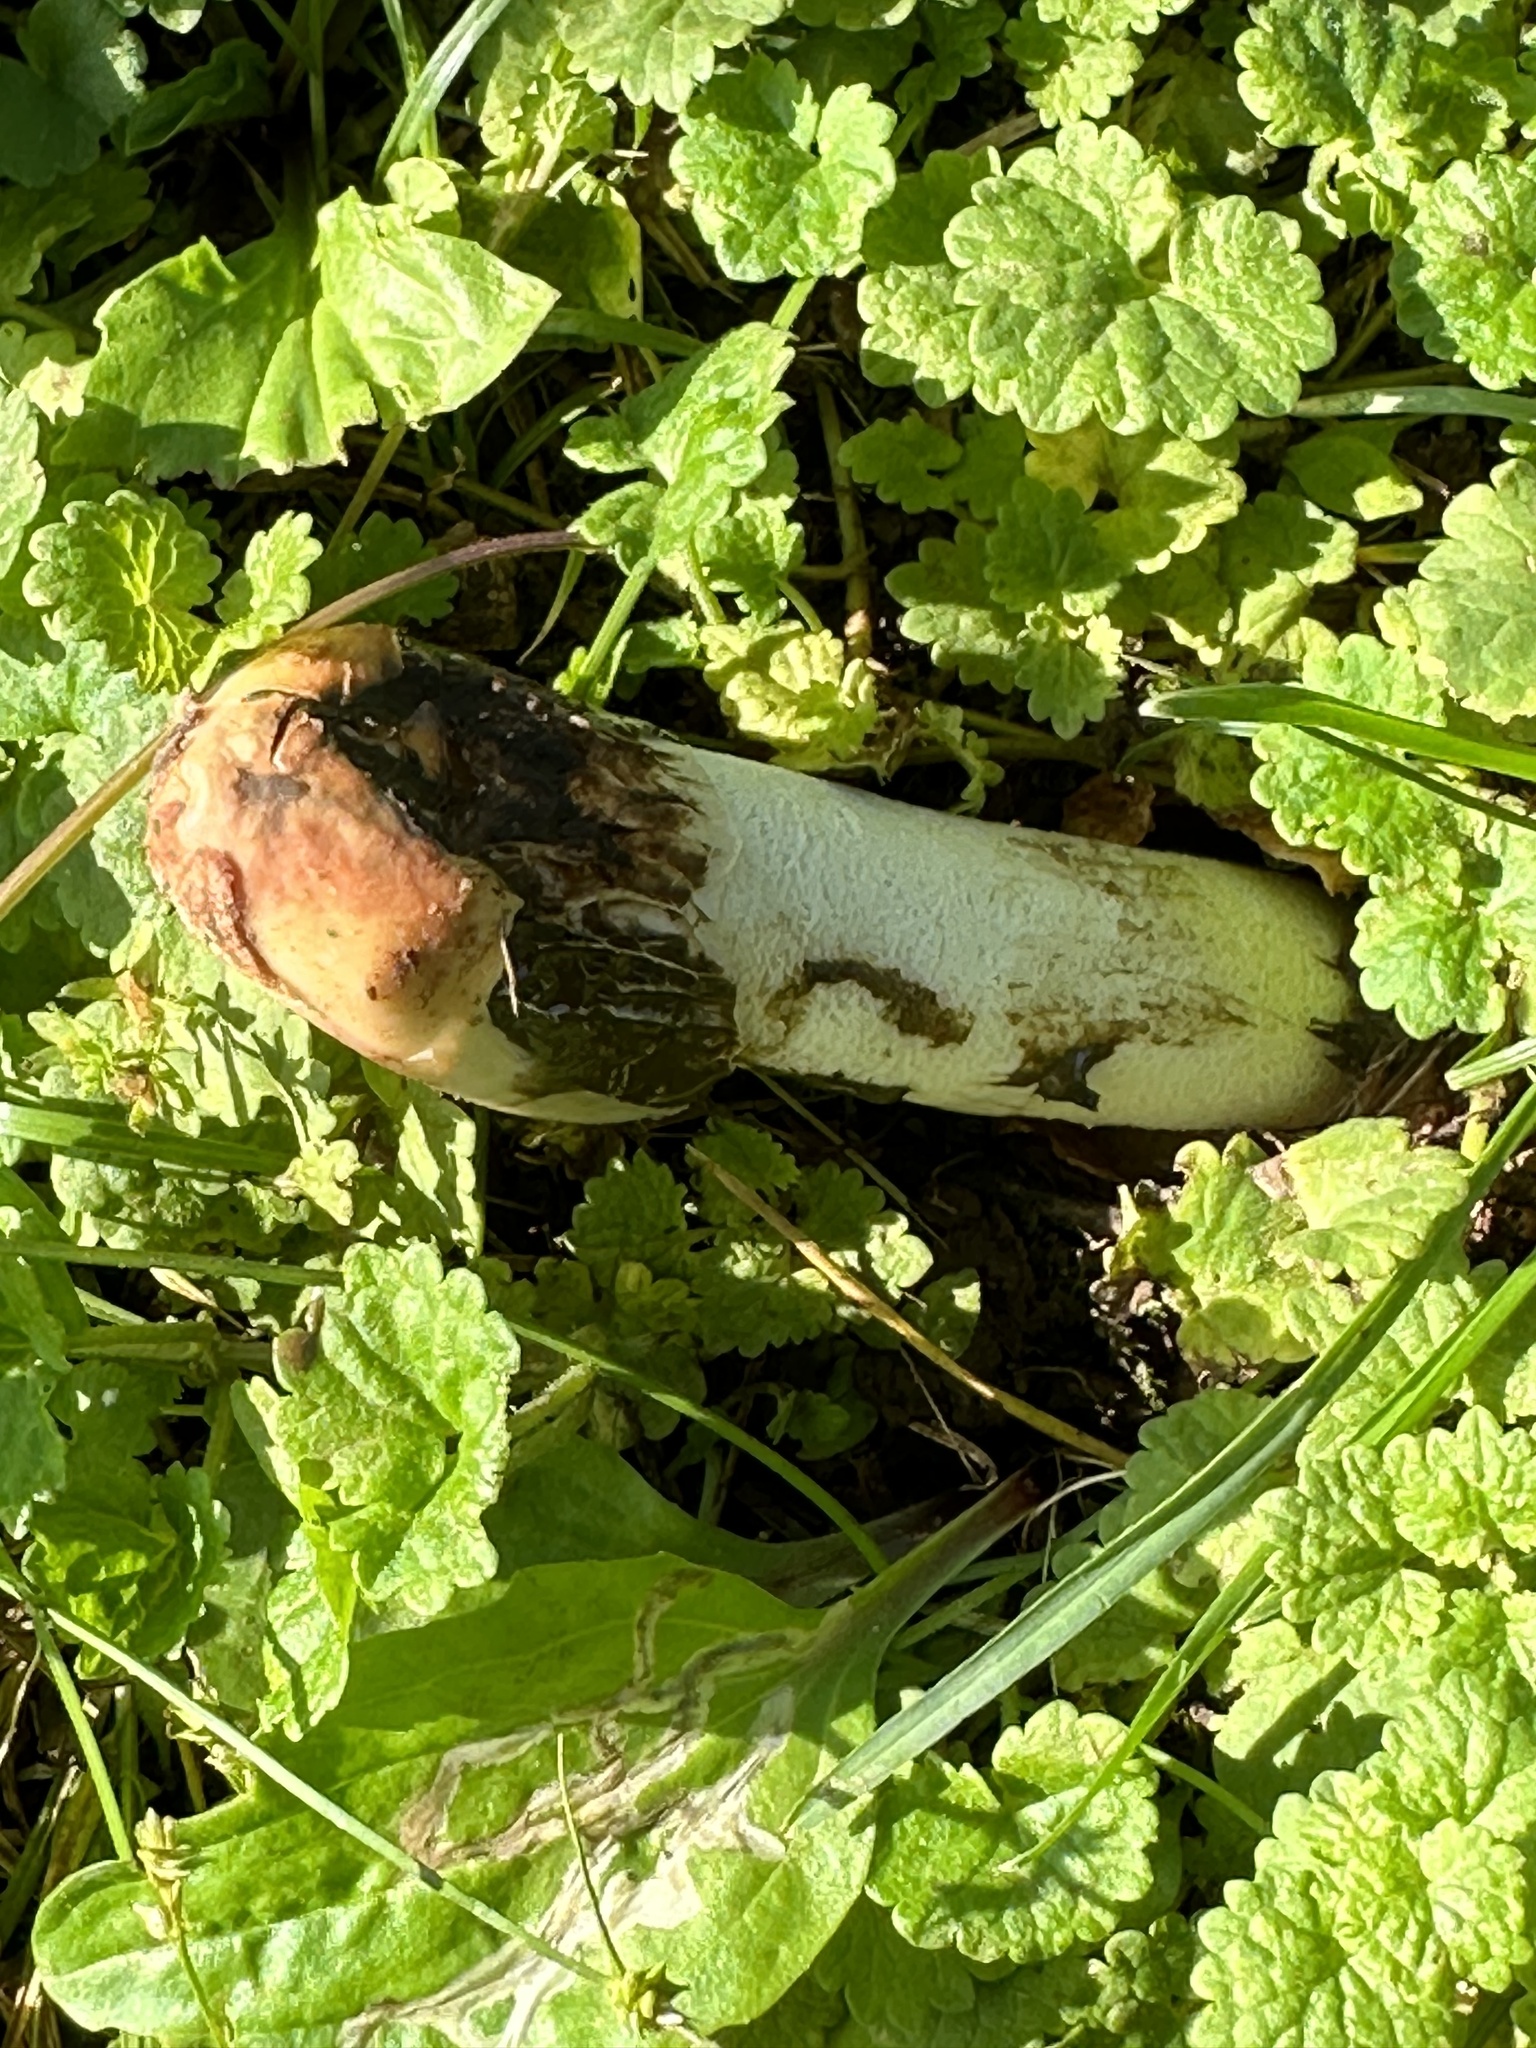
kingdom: Fungi
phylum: Basidiomycota
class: Agaricomycetes
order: Phallales
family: Phallaceae
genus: Phallus
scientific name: Phallus hadriani
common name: Sand stinkhorn
